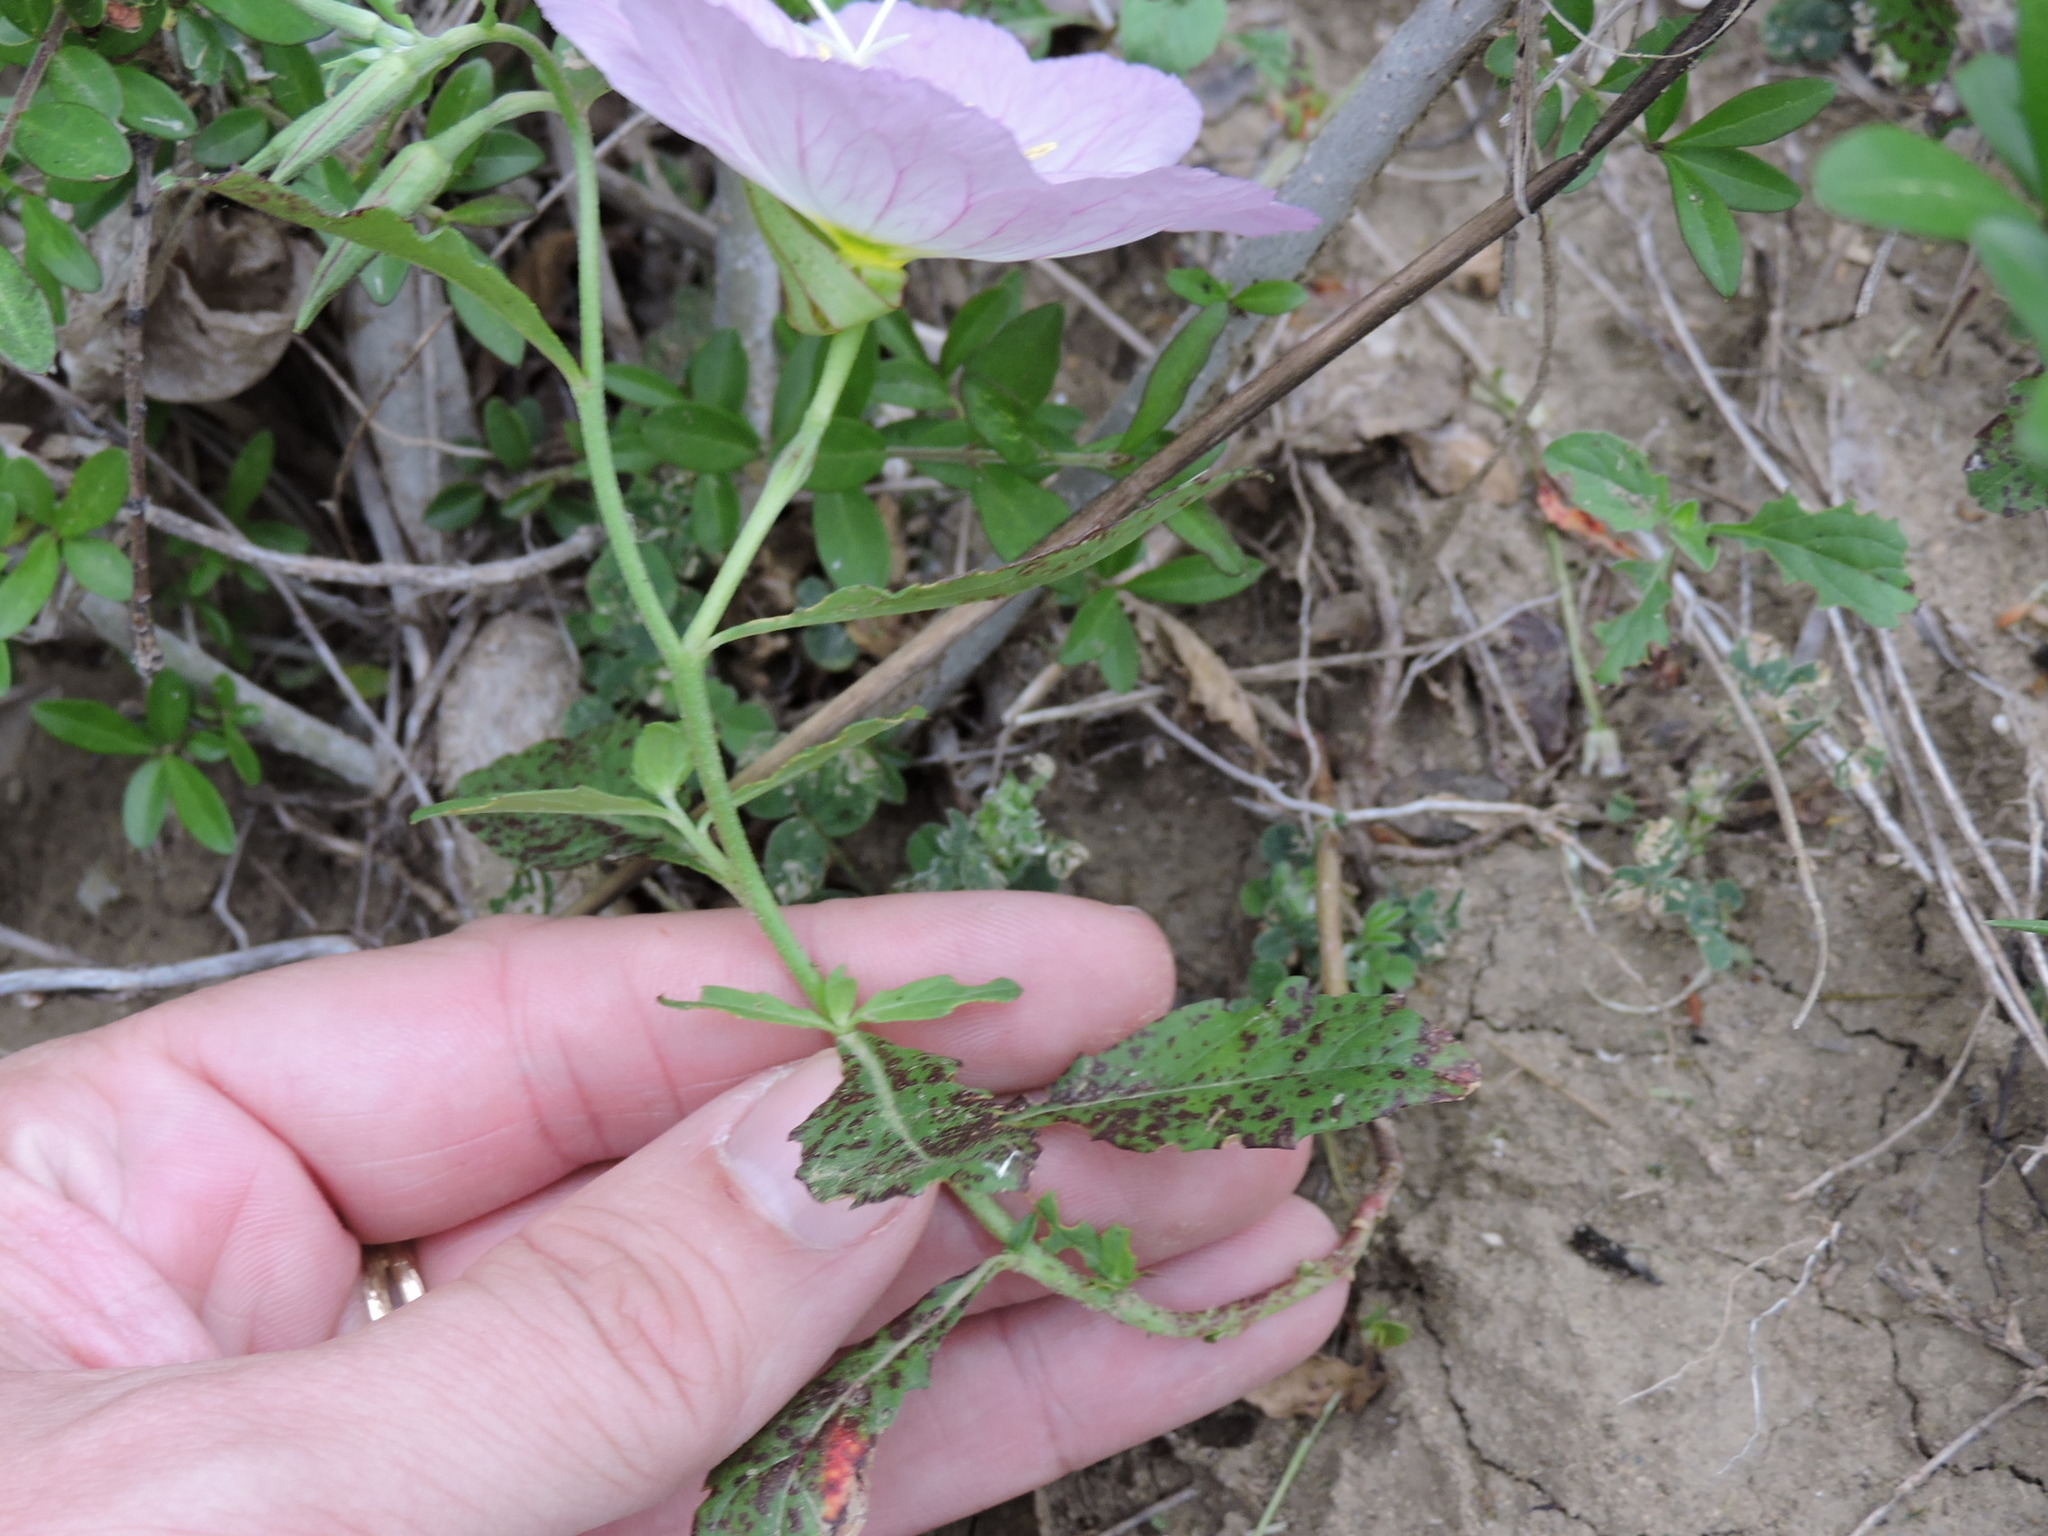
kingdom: Plantae
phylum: Tracheophyta
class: Magnoliopsida
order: Myrtales
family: Onagraceae
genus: Oenothera
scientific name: Oenothera speciosa
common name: White evening-primrose
